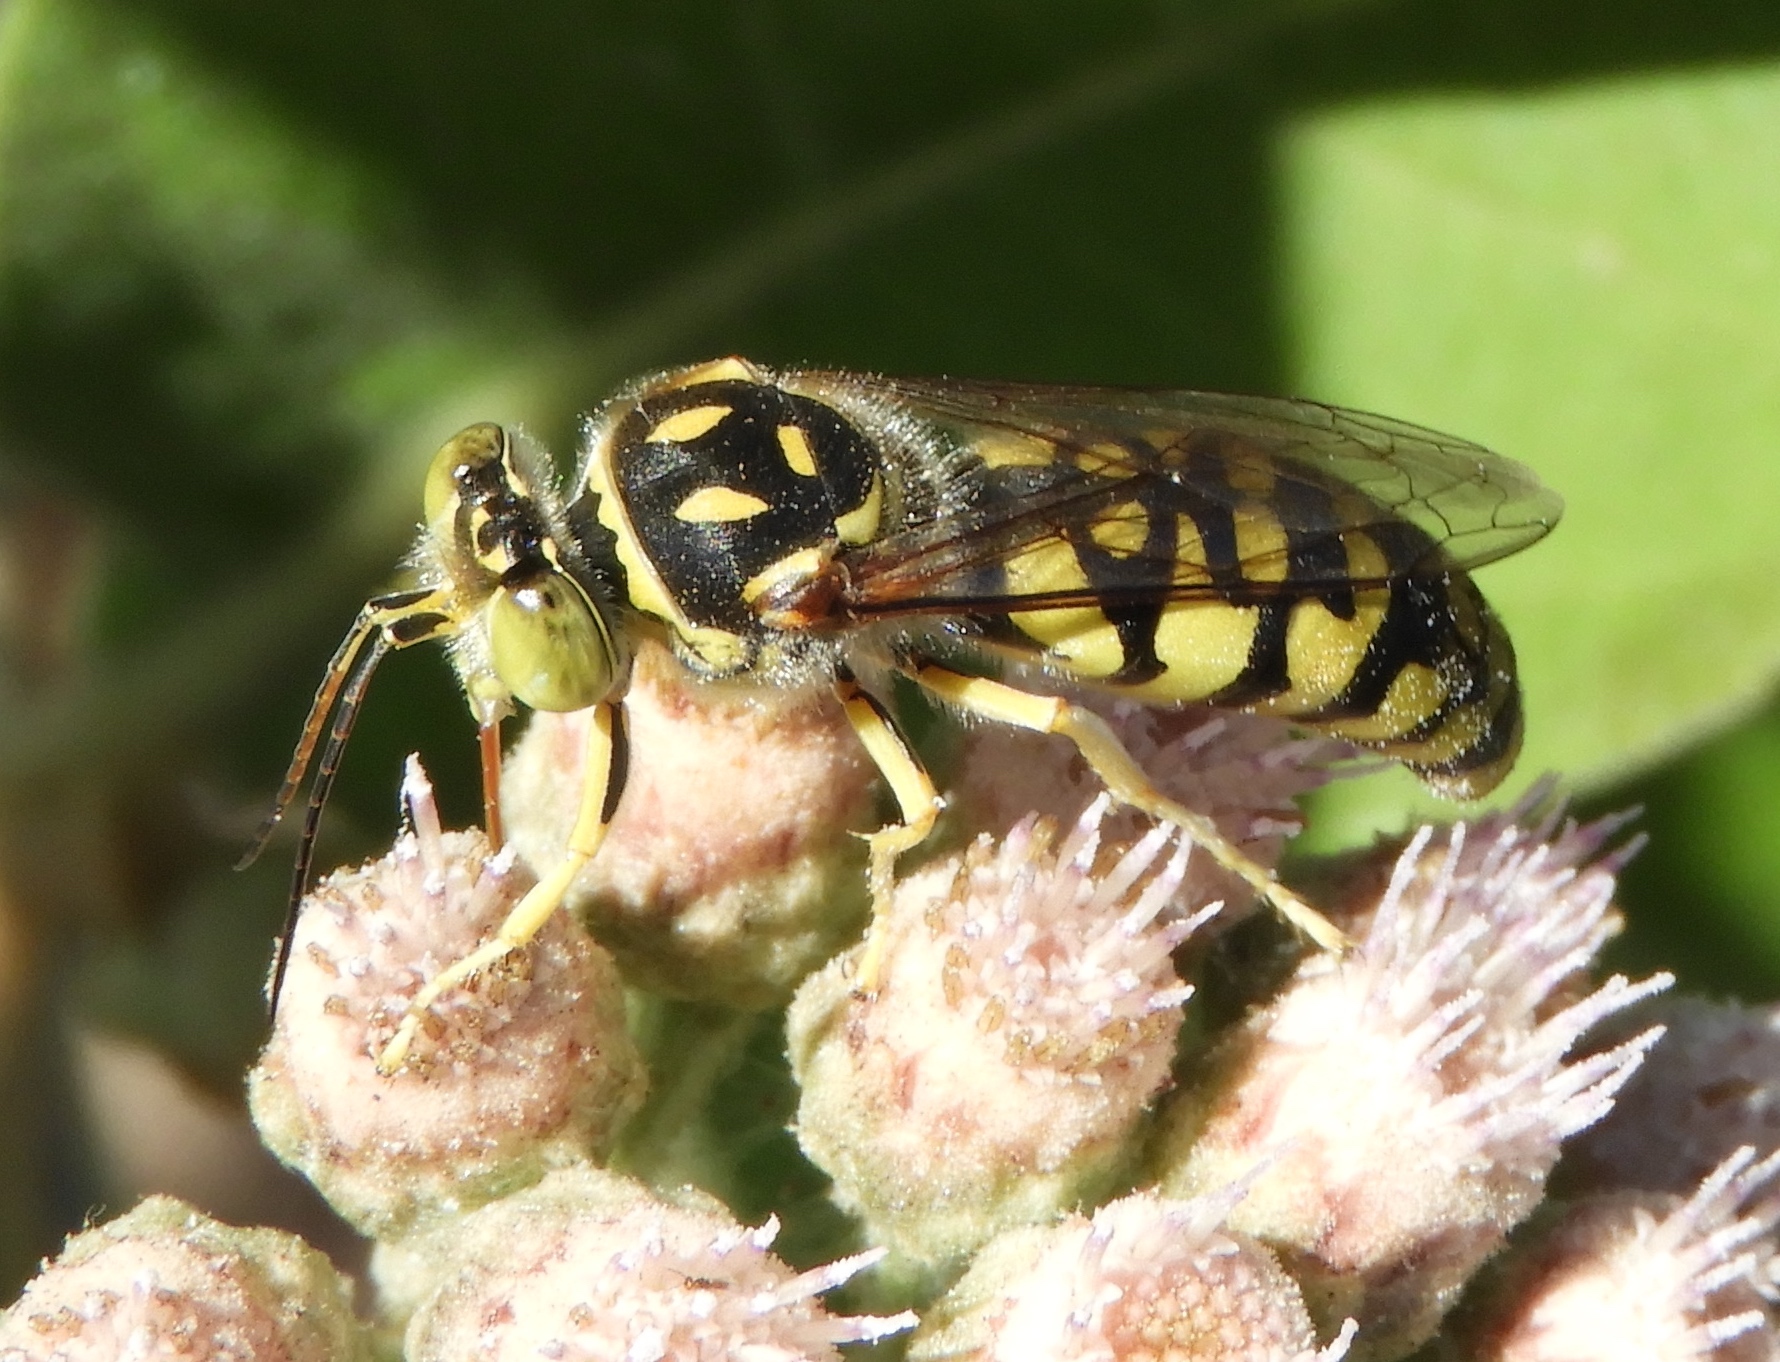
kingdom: Animalia
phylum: Arthropoda
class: Insecta
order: Hymenoptera
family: Crabronidae
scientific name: Crabronidae
